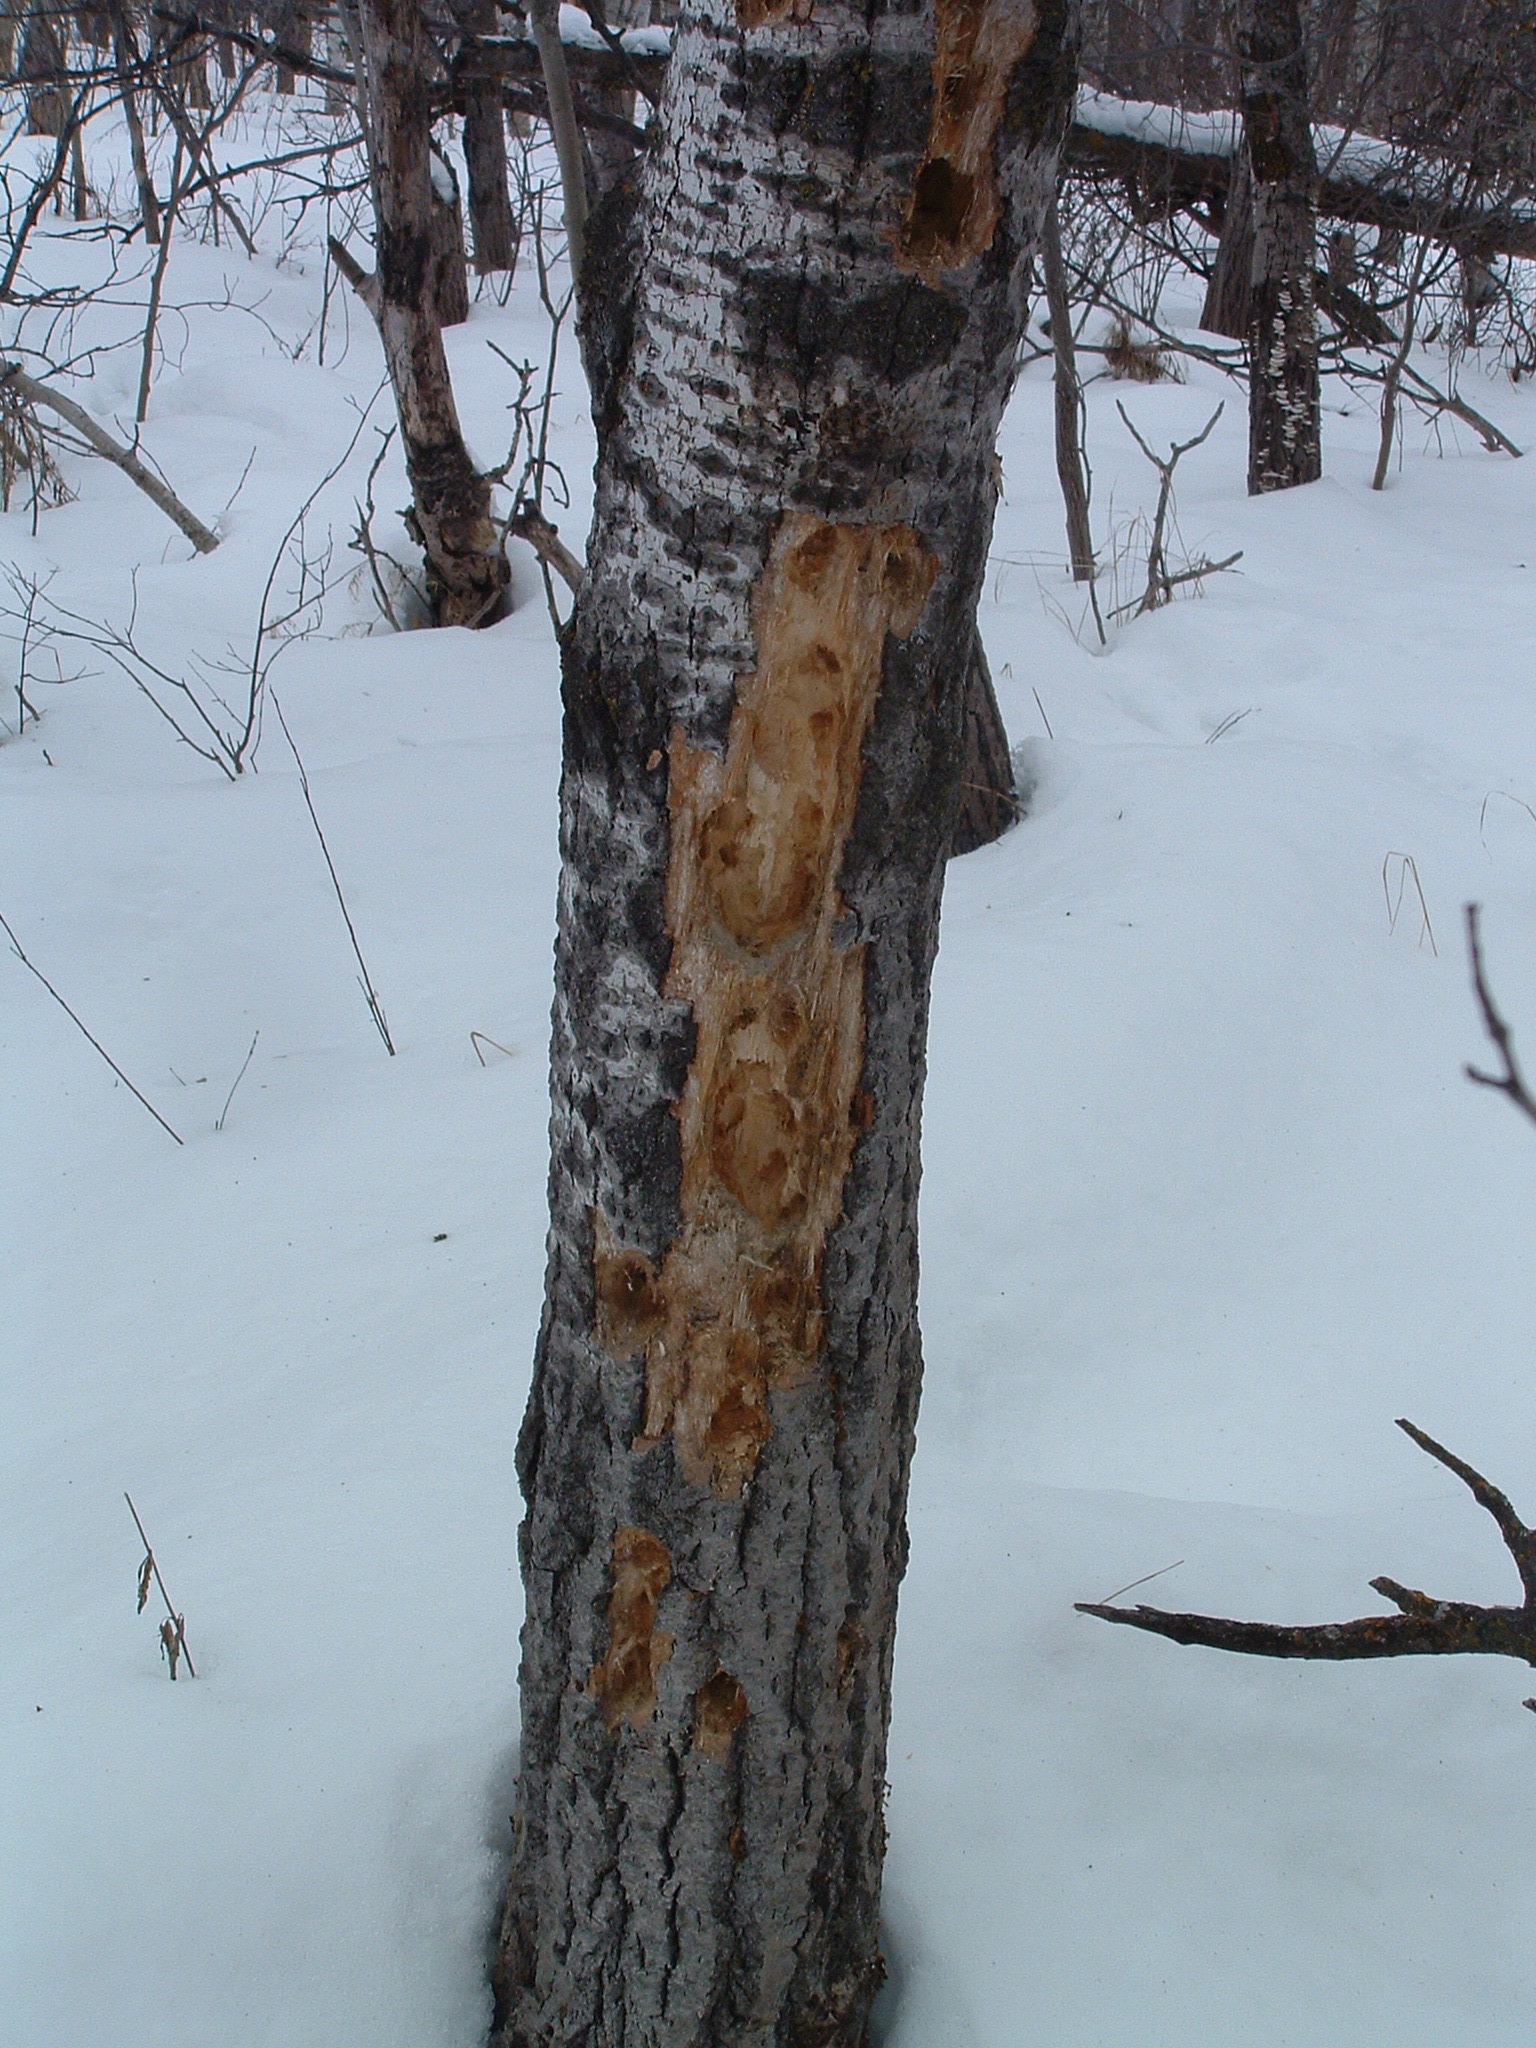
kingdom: Animalia
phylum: Chordata
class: Aves
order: Piciformes
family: Picidae
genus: Dryocopus
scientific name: Dryocopus pileatus
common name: Pileated woodpecker
